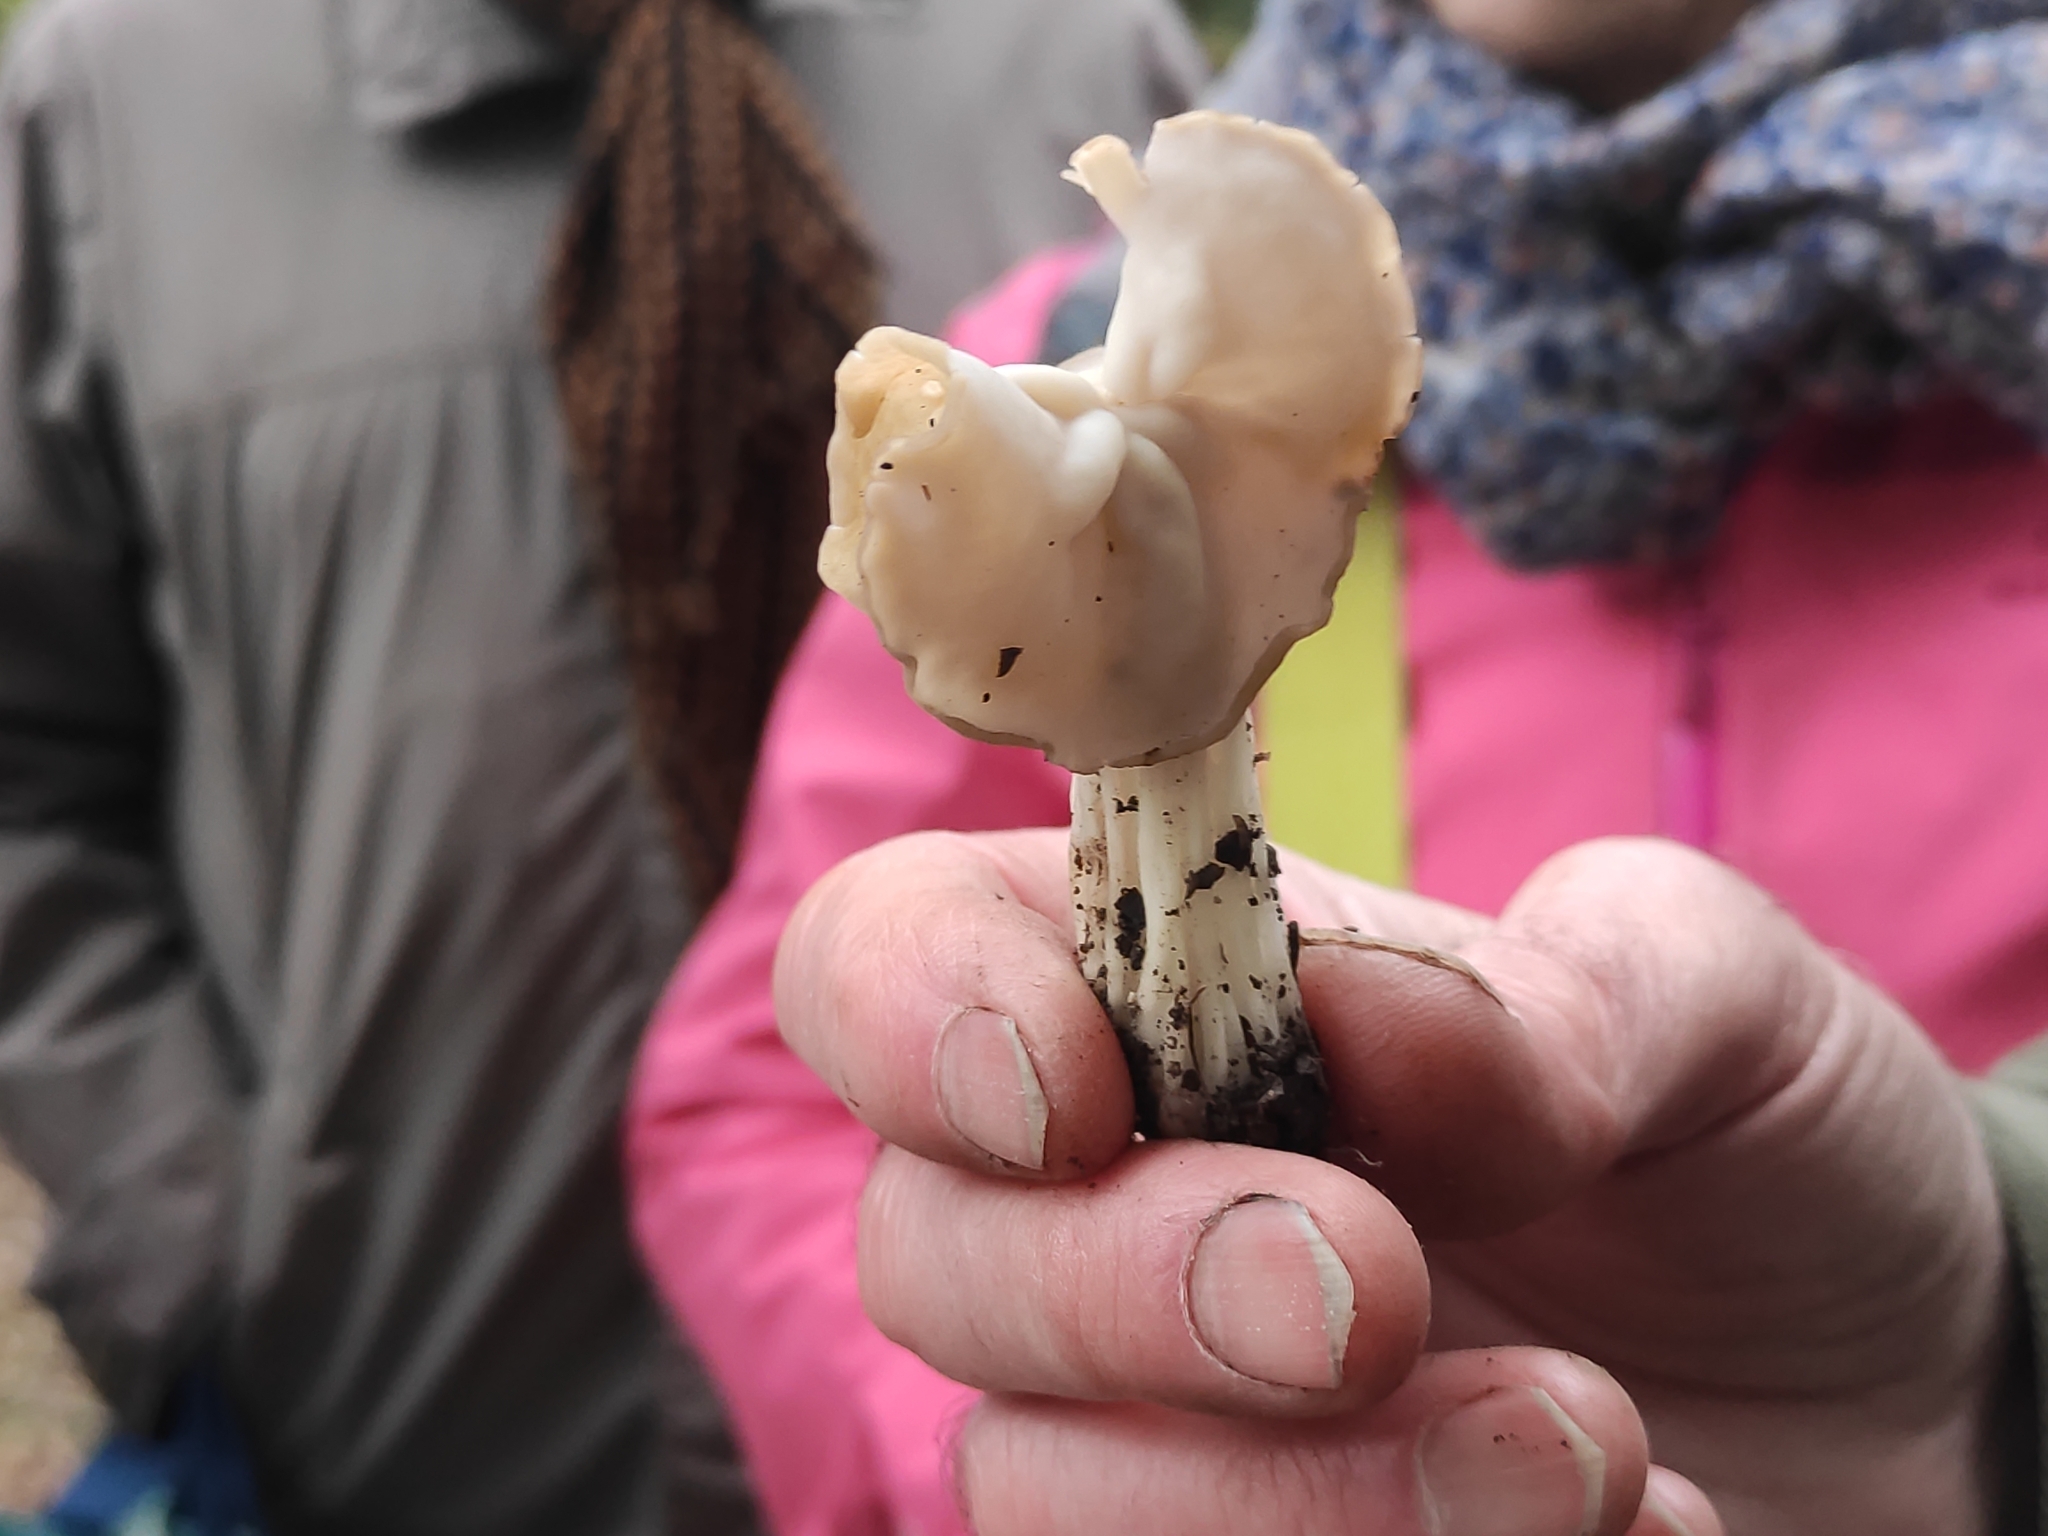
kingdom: Fungi
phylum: Ascomycota
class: Pezizomycetes
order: Pezizales
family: Helvellaceae
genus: Helvella
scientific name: Helvella crispa
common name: White saddle
